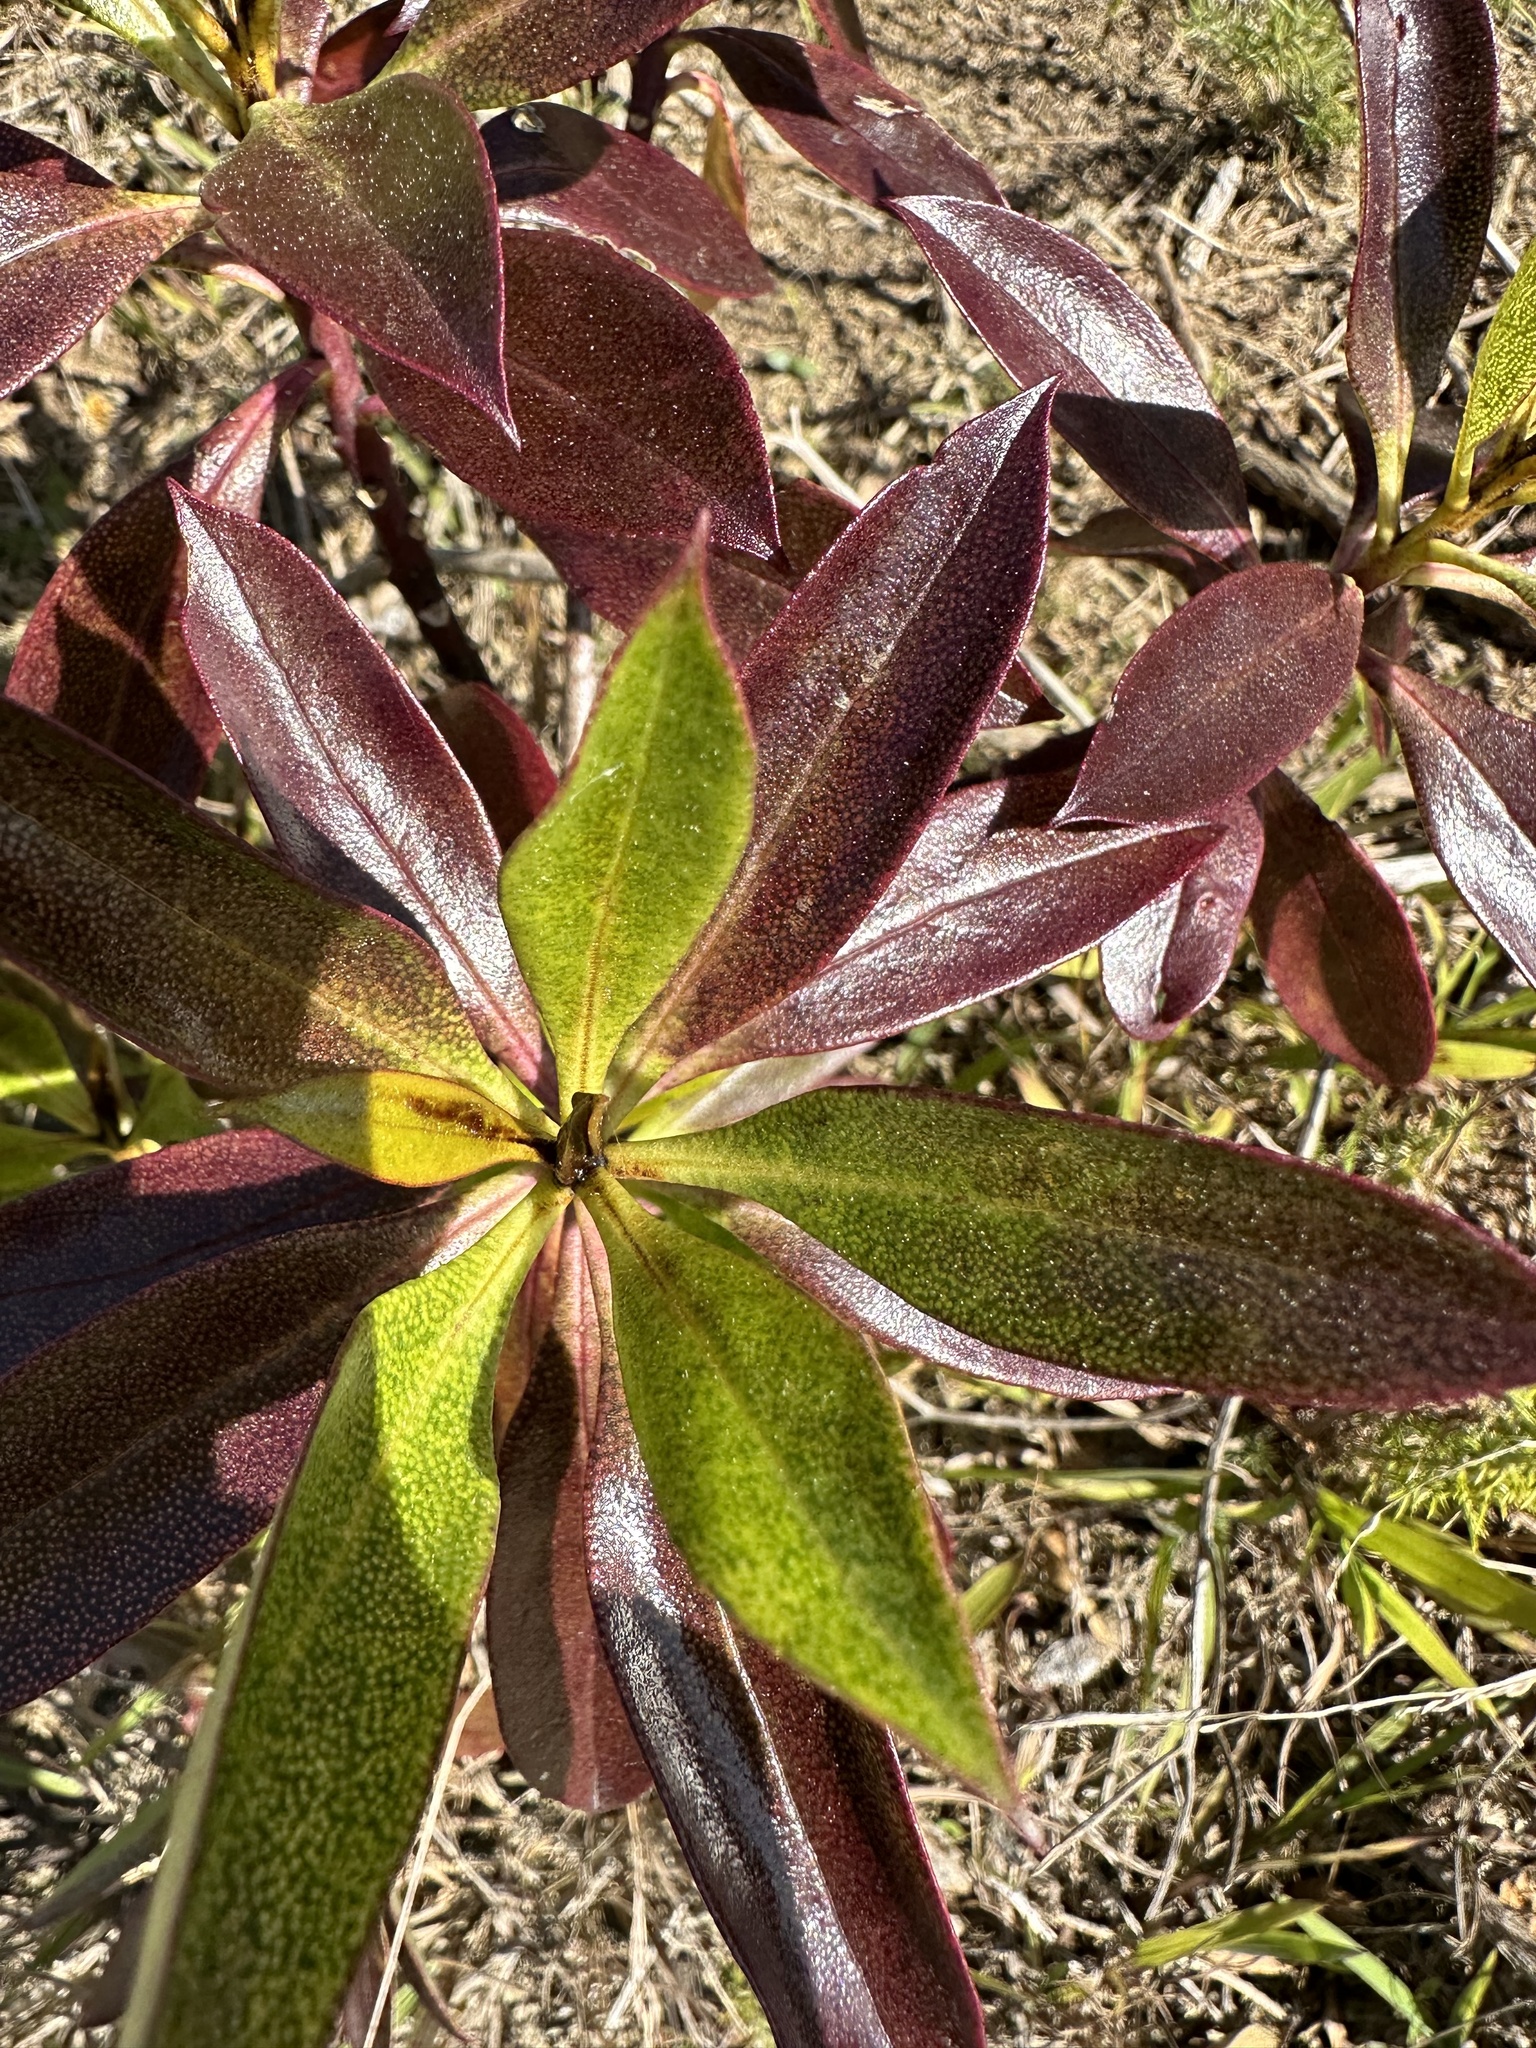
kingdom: Plantae
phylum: Tracheophyta
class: Magnoliopsida
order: Lamiales
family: Scrophulariaceae
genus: Myoporum
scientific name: Myoporum laetum
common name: Ngaio tree
